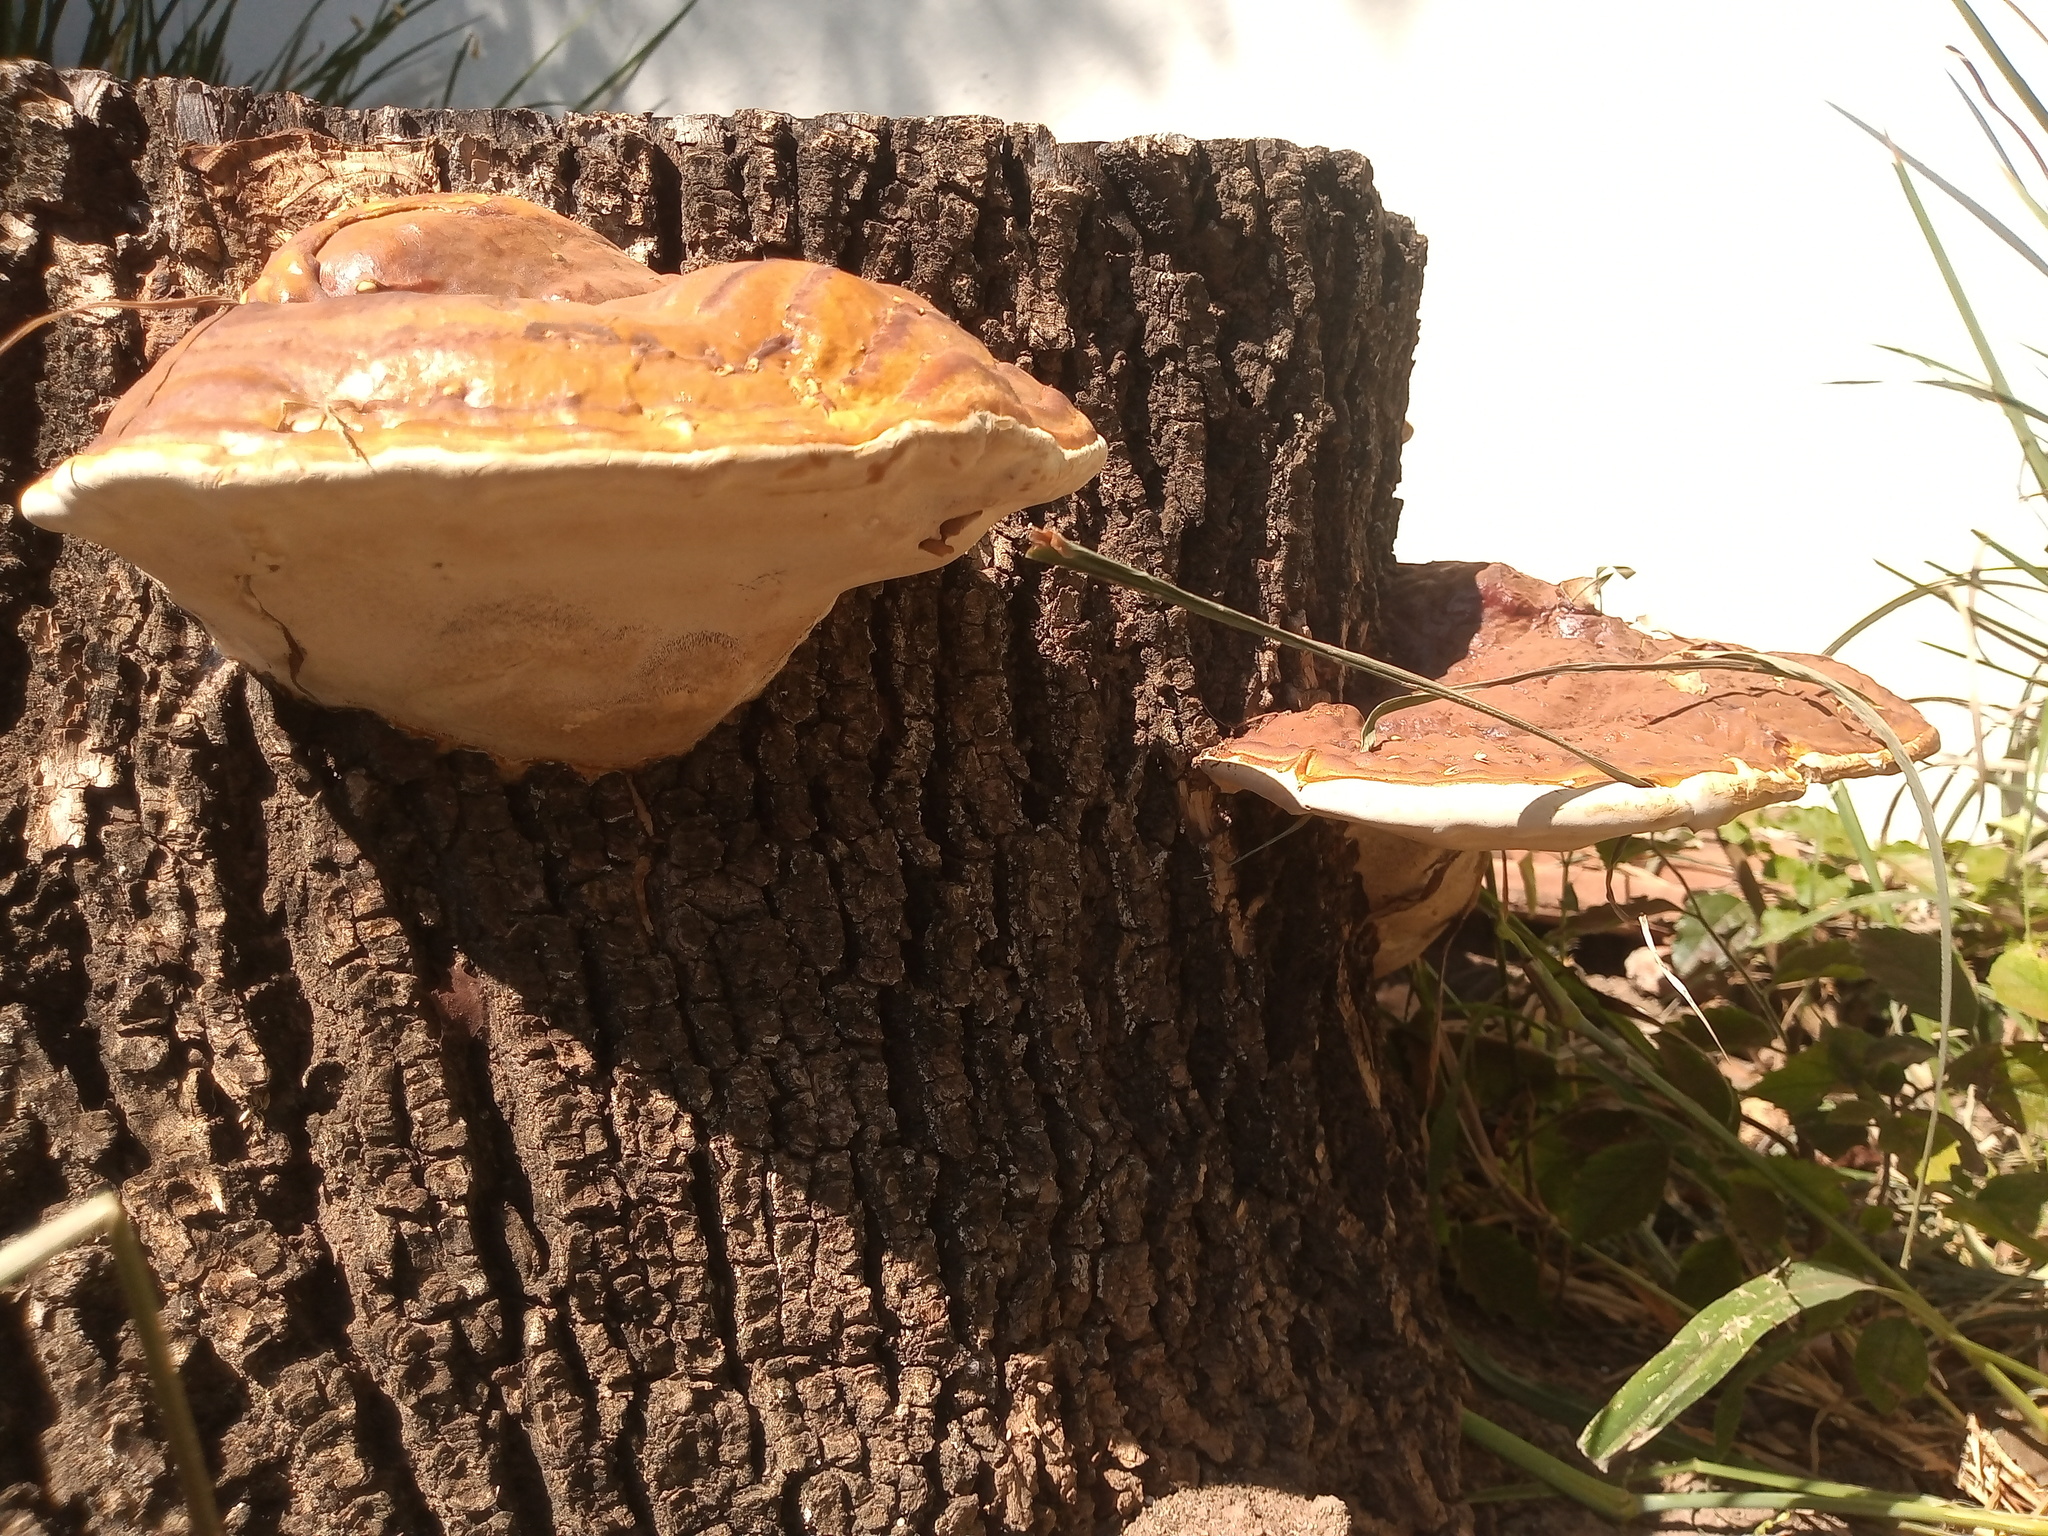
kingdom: Fungi
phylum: Basidiomycota
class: Agaricomycetes
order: Polyporales
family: Polyporaceae
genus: Ganoderma
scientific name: Ganoderma resinaceum
